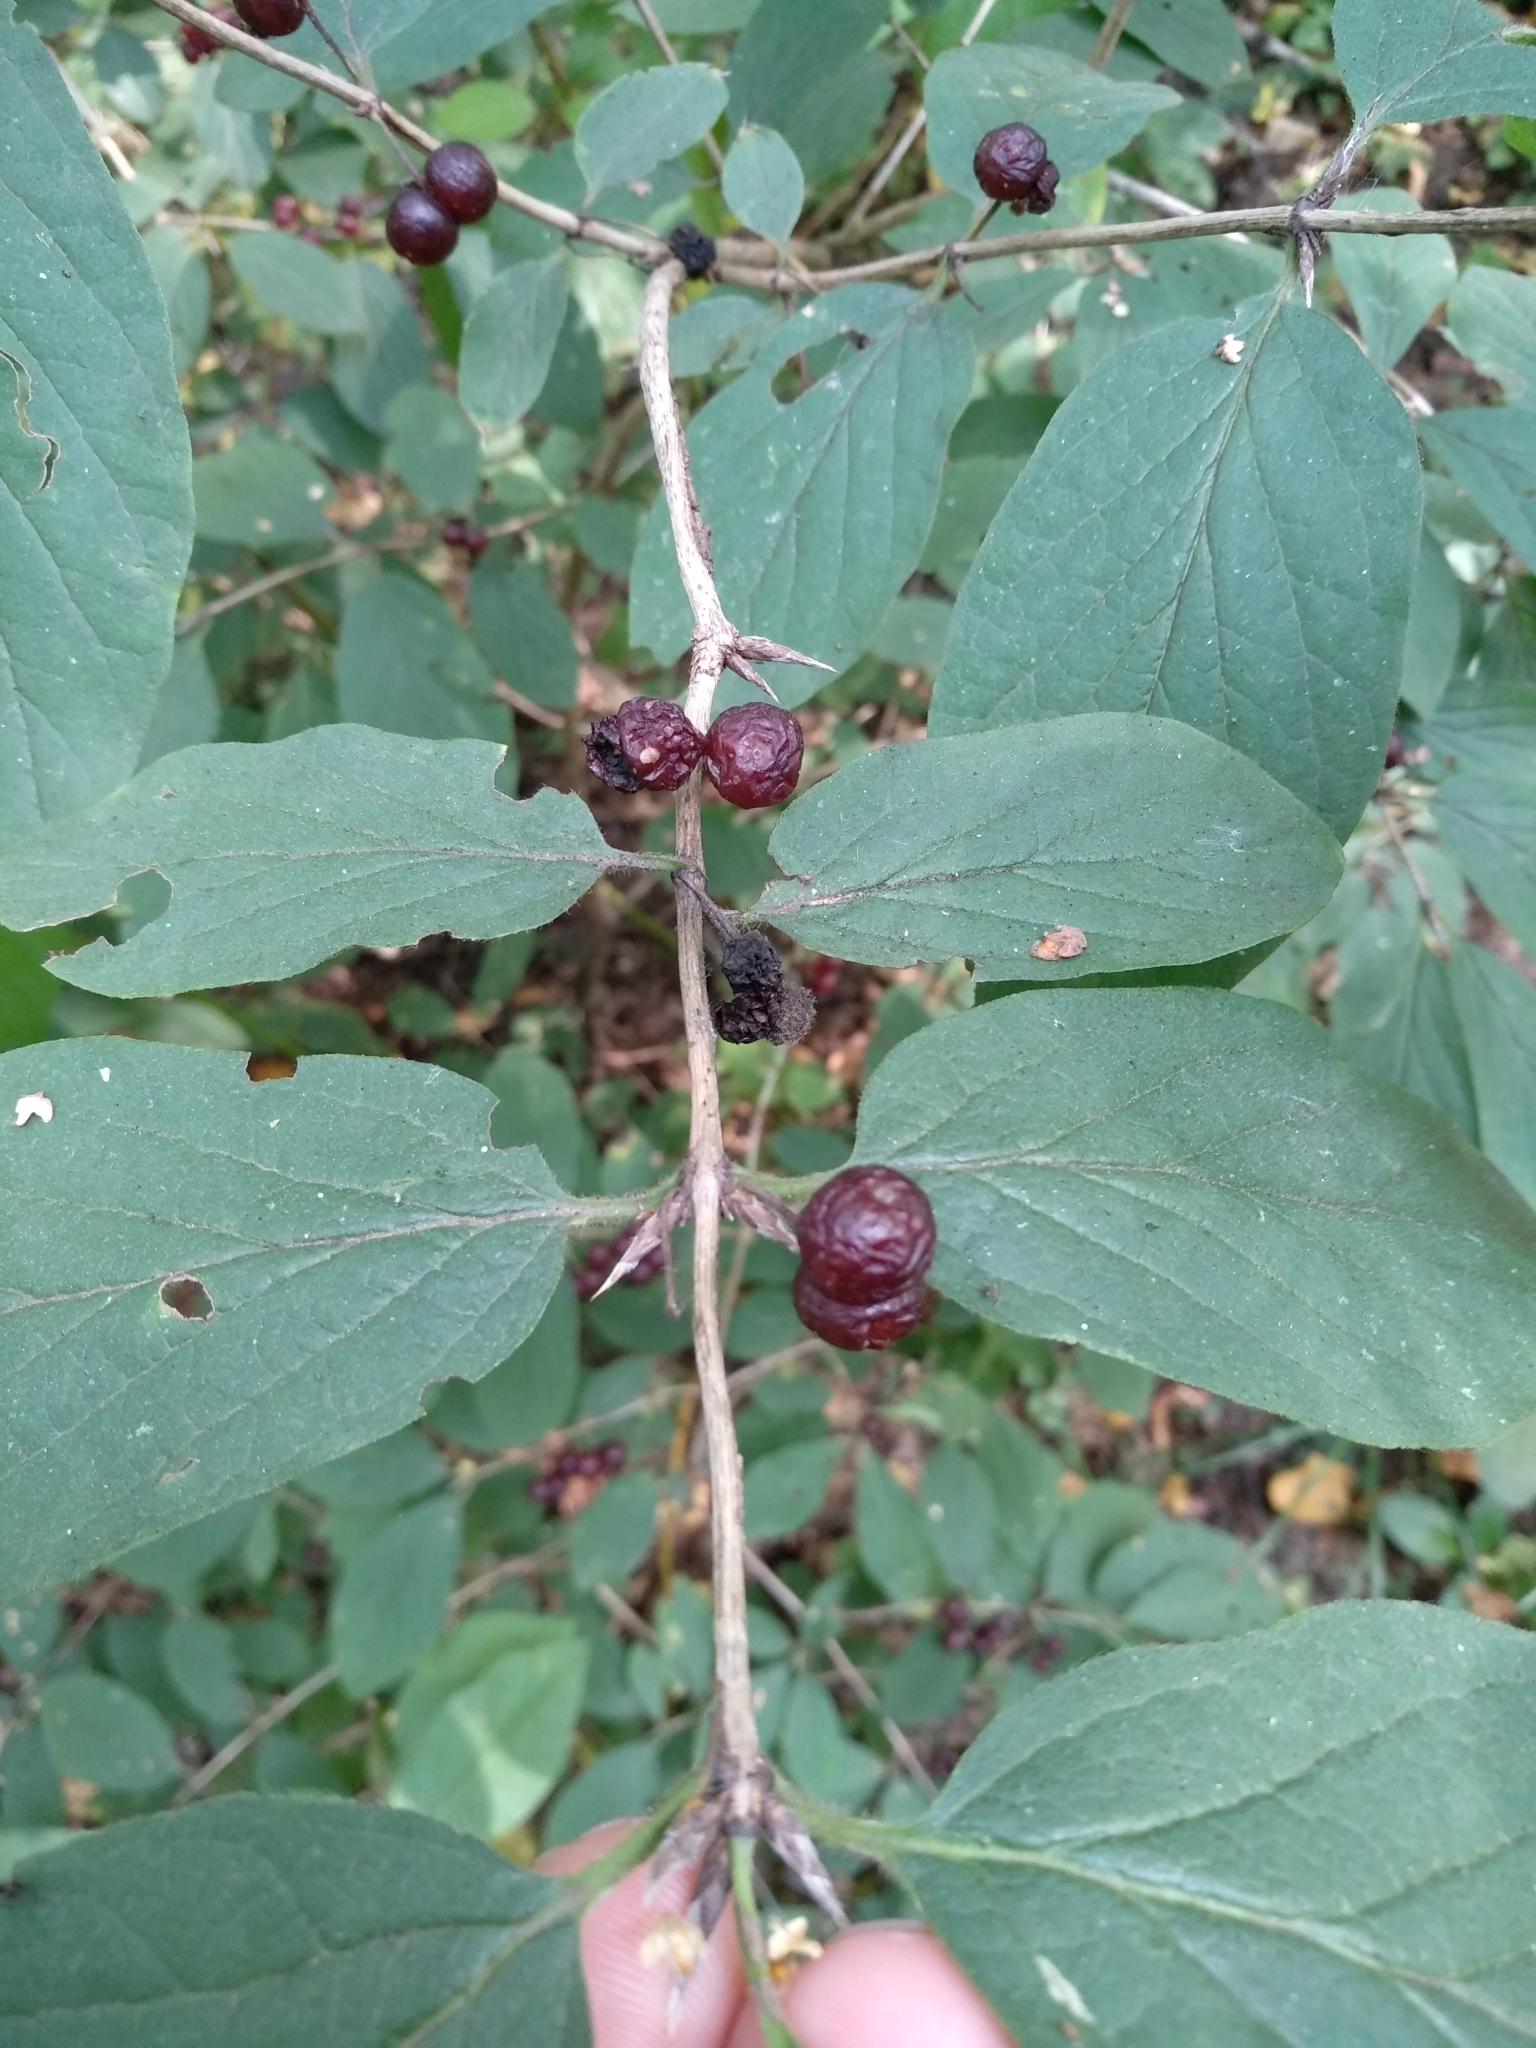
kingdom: Plantae
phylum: Tracheophyta
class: Magnoliopsida
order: Dipsacales
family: Caprifoliaceae
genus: Lonicera
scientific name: Lonicera xylosteum
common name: Fly honeysuckle
